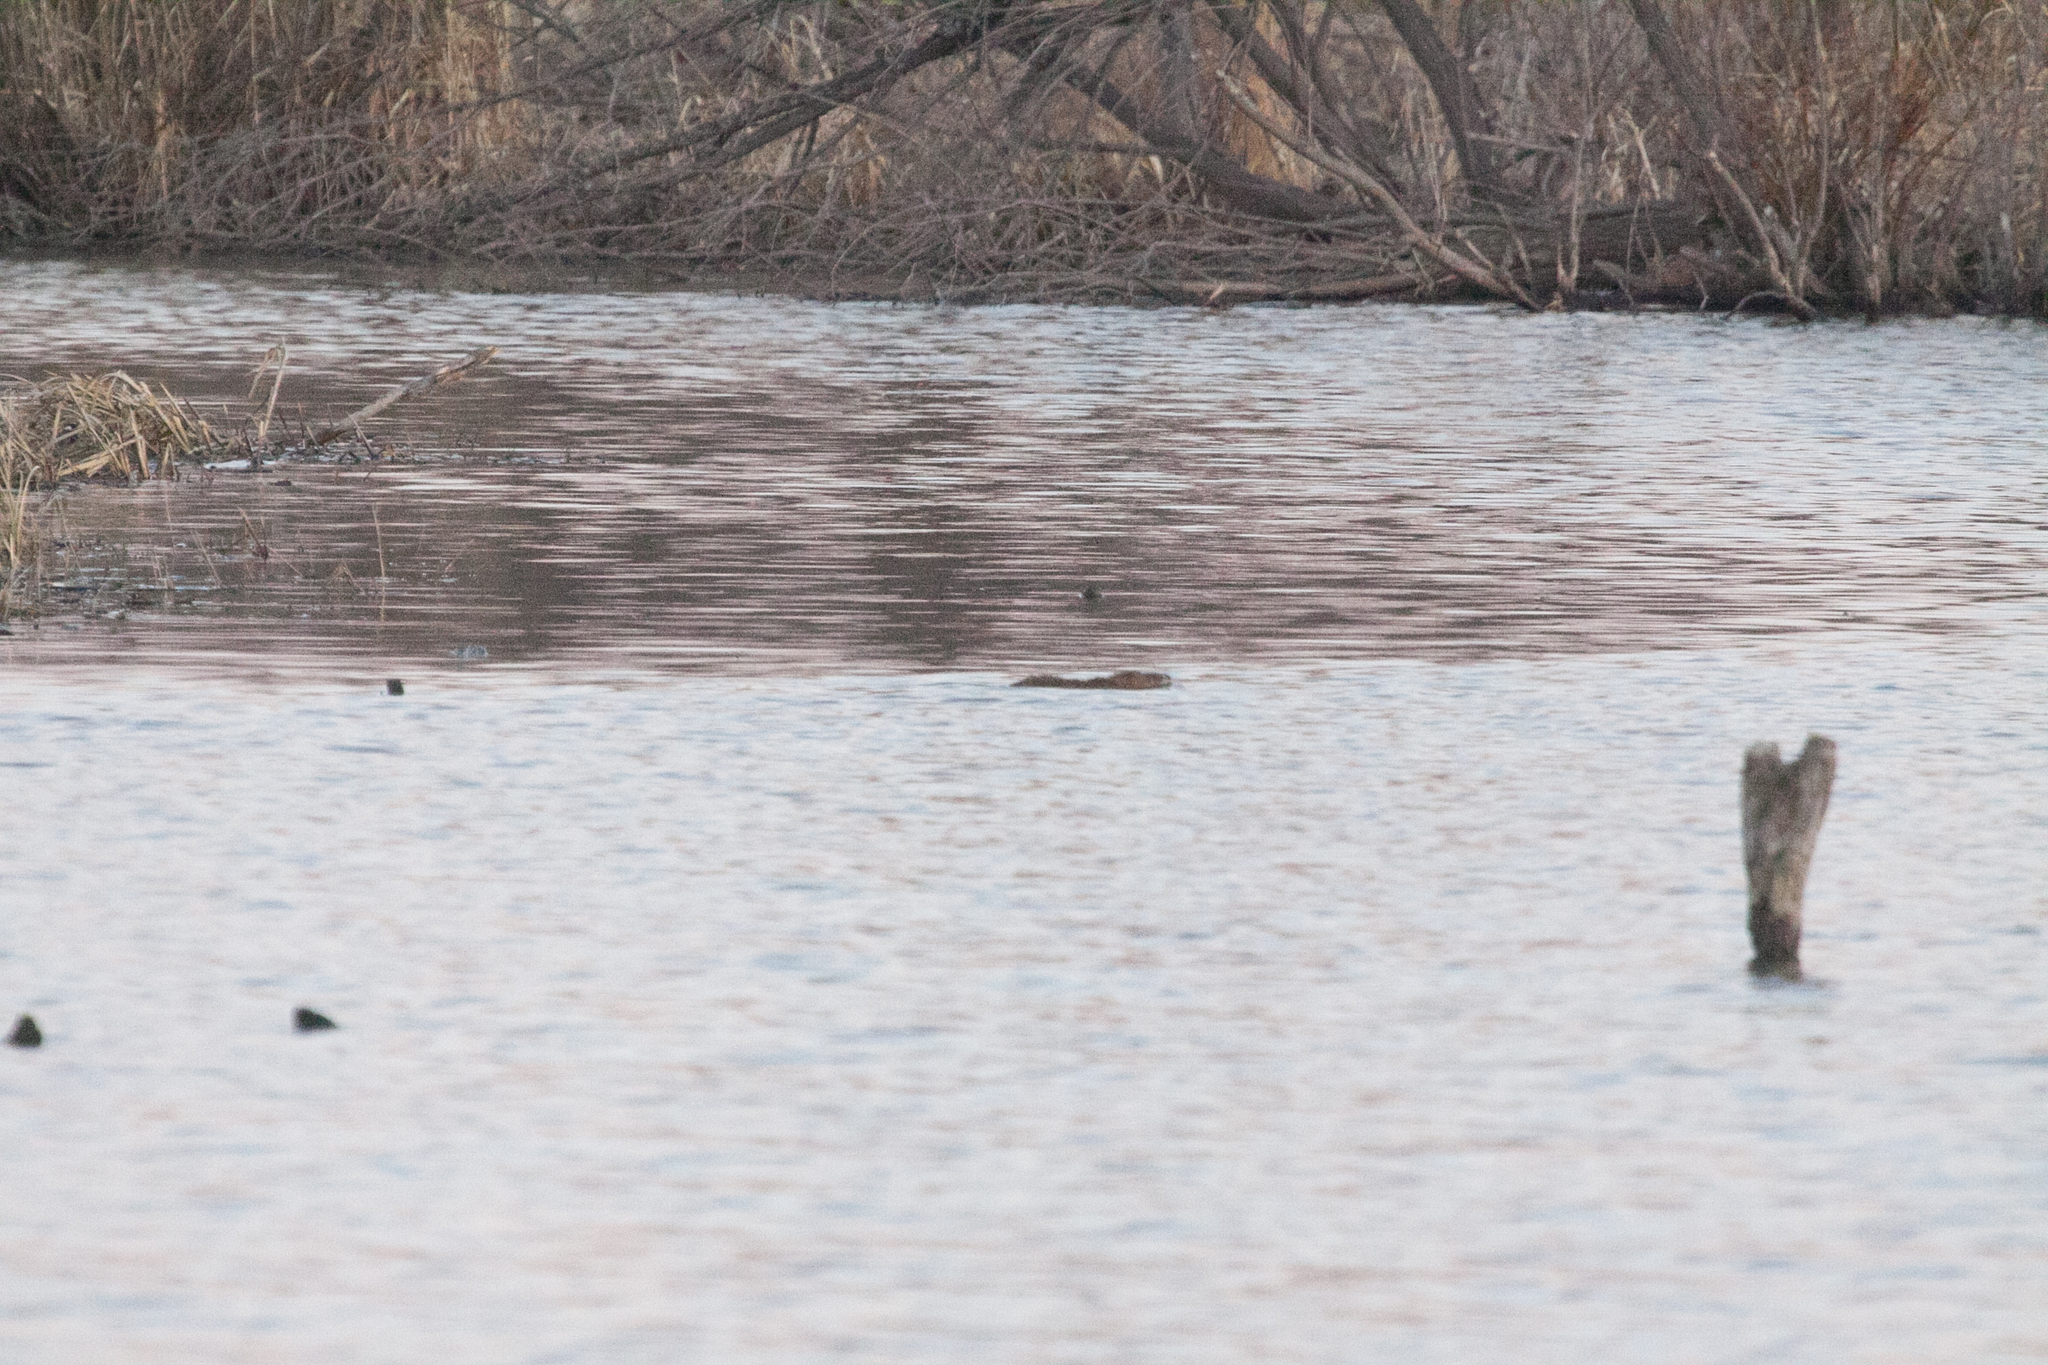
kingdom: Animalia
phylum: Chordata
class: Mammalia
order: Rodentia
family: Cricetidae
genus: Ondatra
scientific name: Ondatra zibethicus
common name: Muskrat
